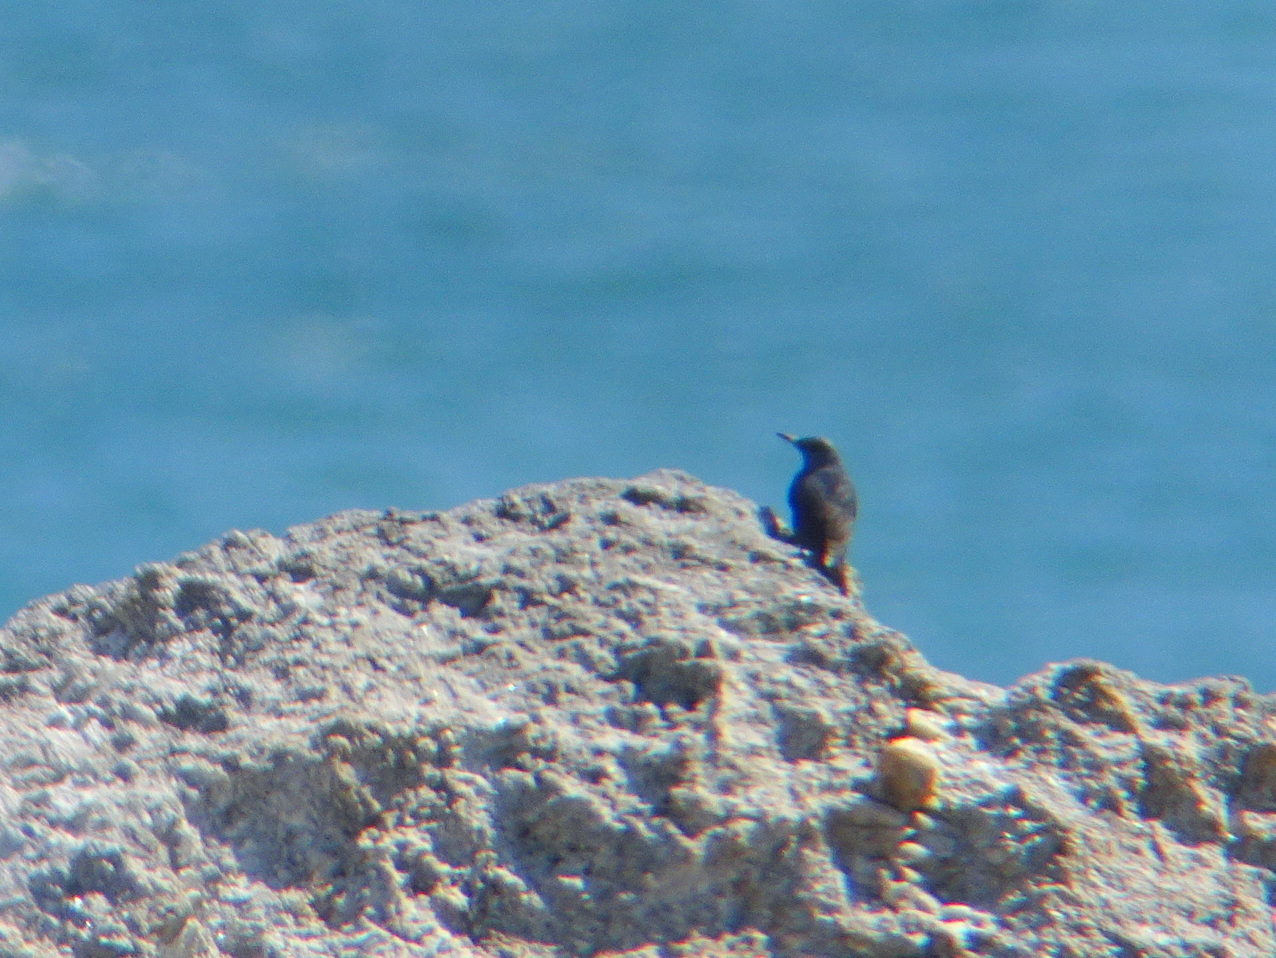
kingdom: Animalia
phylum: Chordata
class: Aves
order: Passeriformes
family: Muscicapidae
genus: Monticola
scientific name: Monticola solitarius
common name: Blue rock thrush
